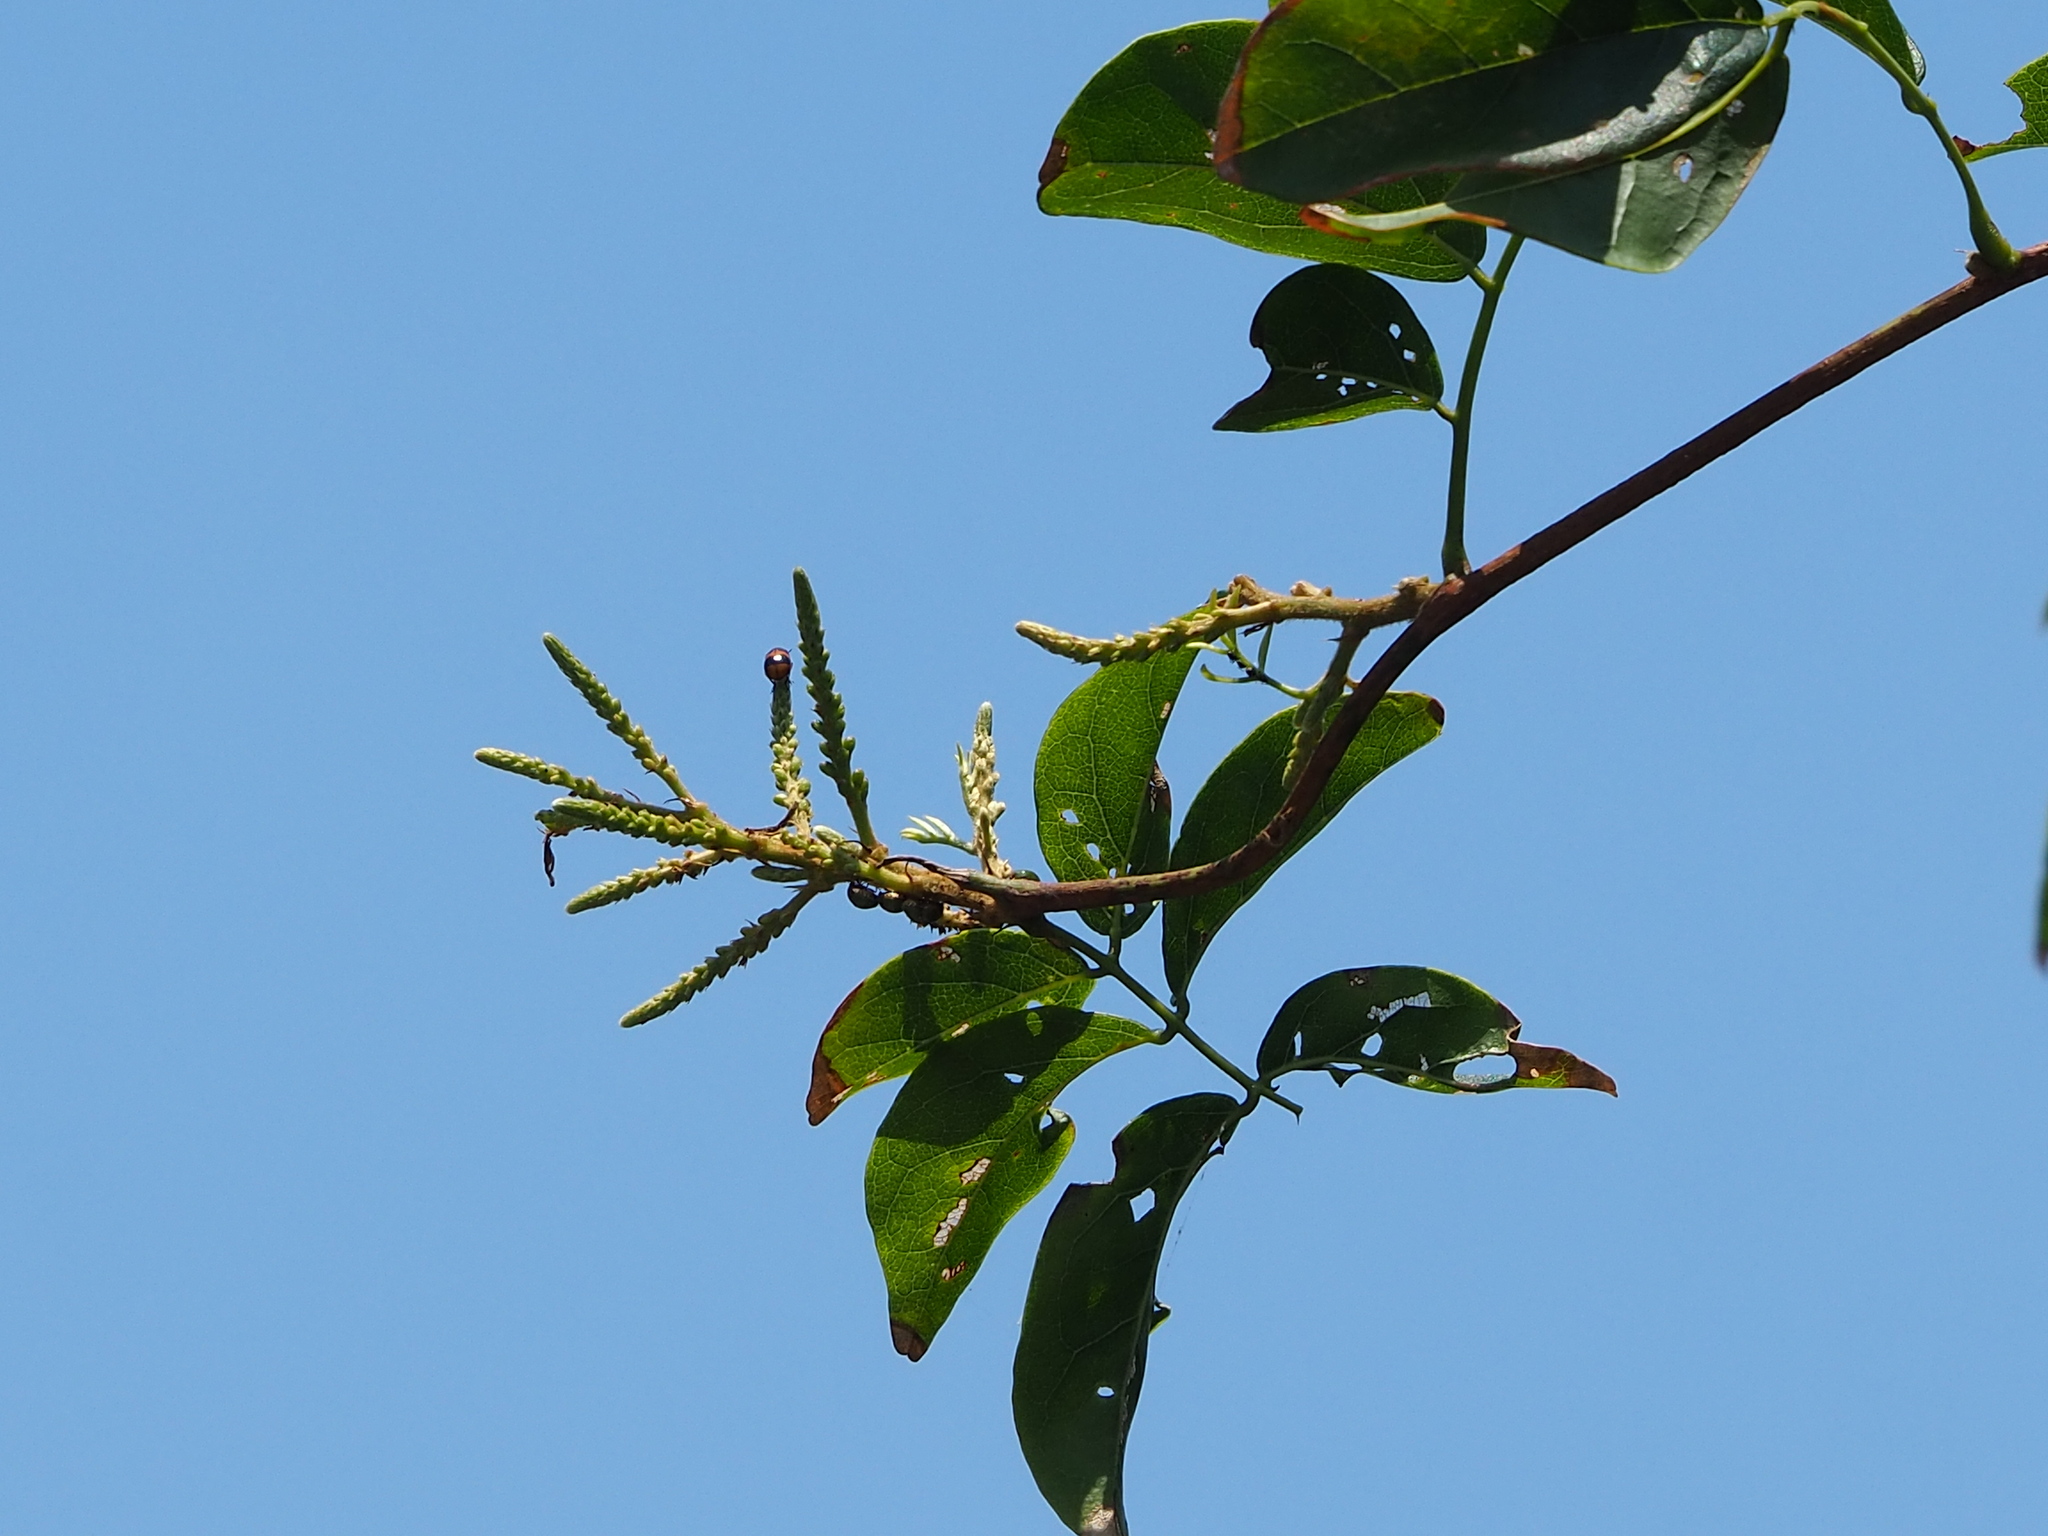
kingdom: Plantae
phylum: Tracheophyta
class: Magnoliopsida
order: Fabales
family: Fabaceae
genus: Wisteriopsis
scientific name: Wisteriopsis reticulata
